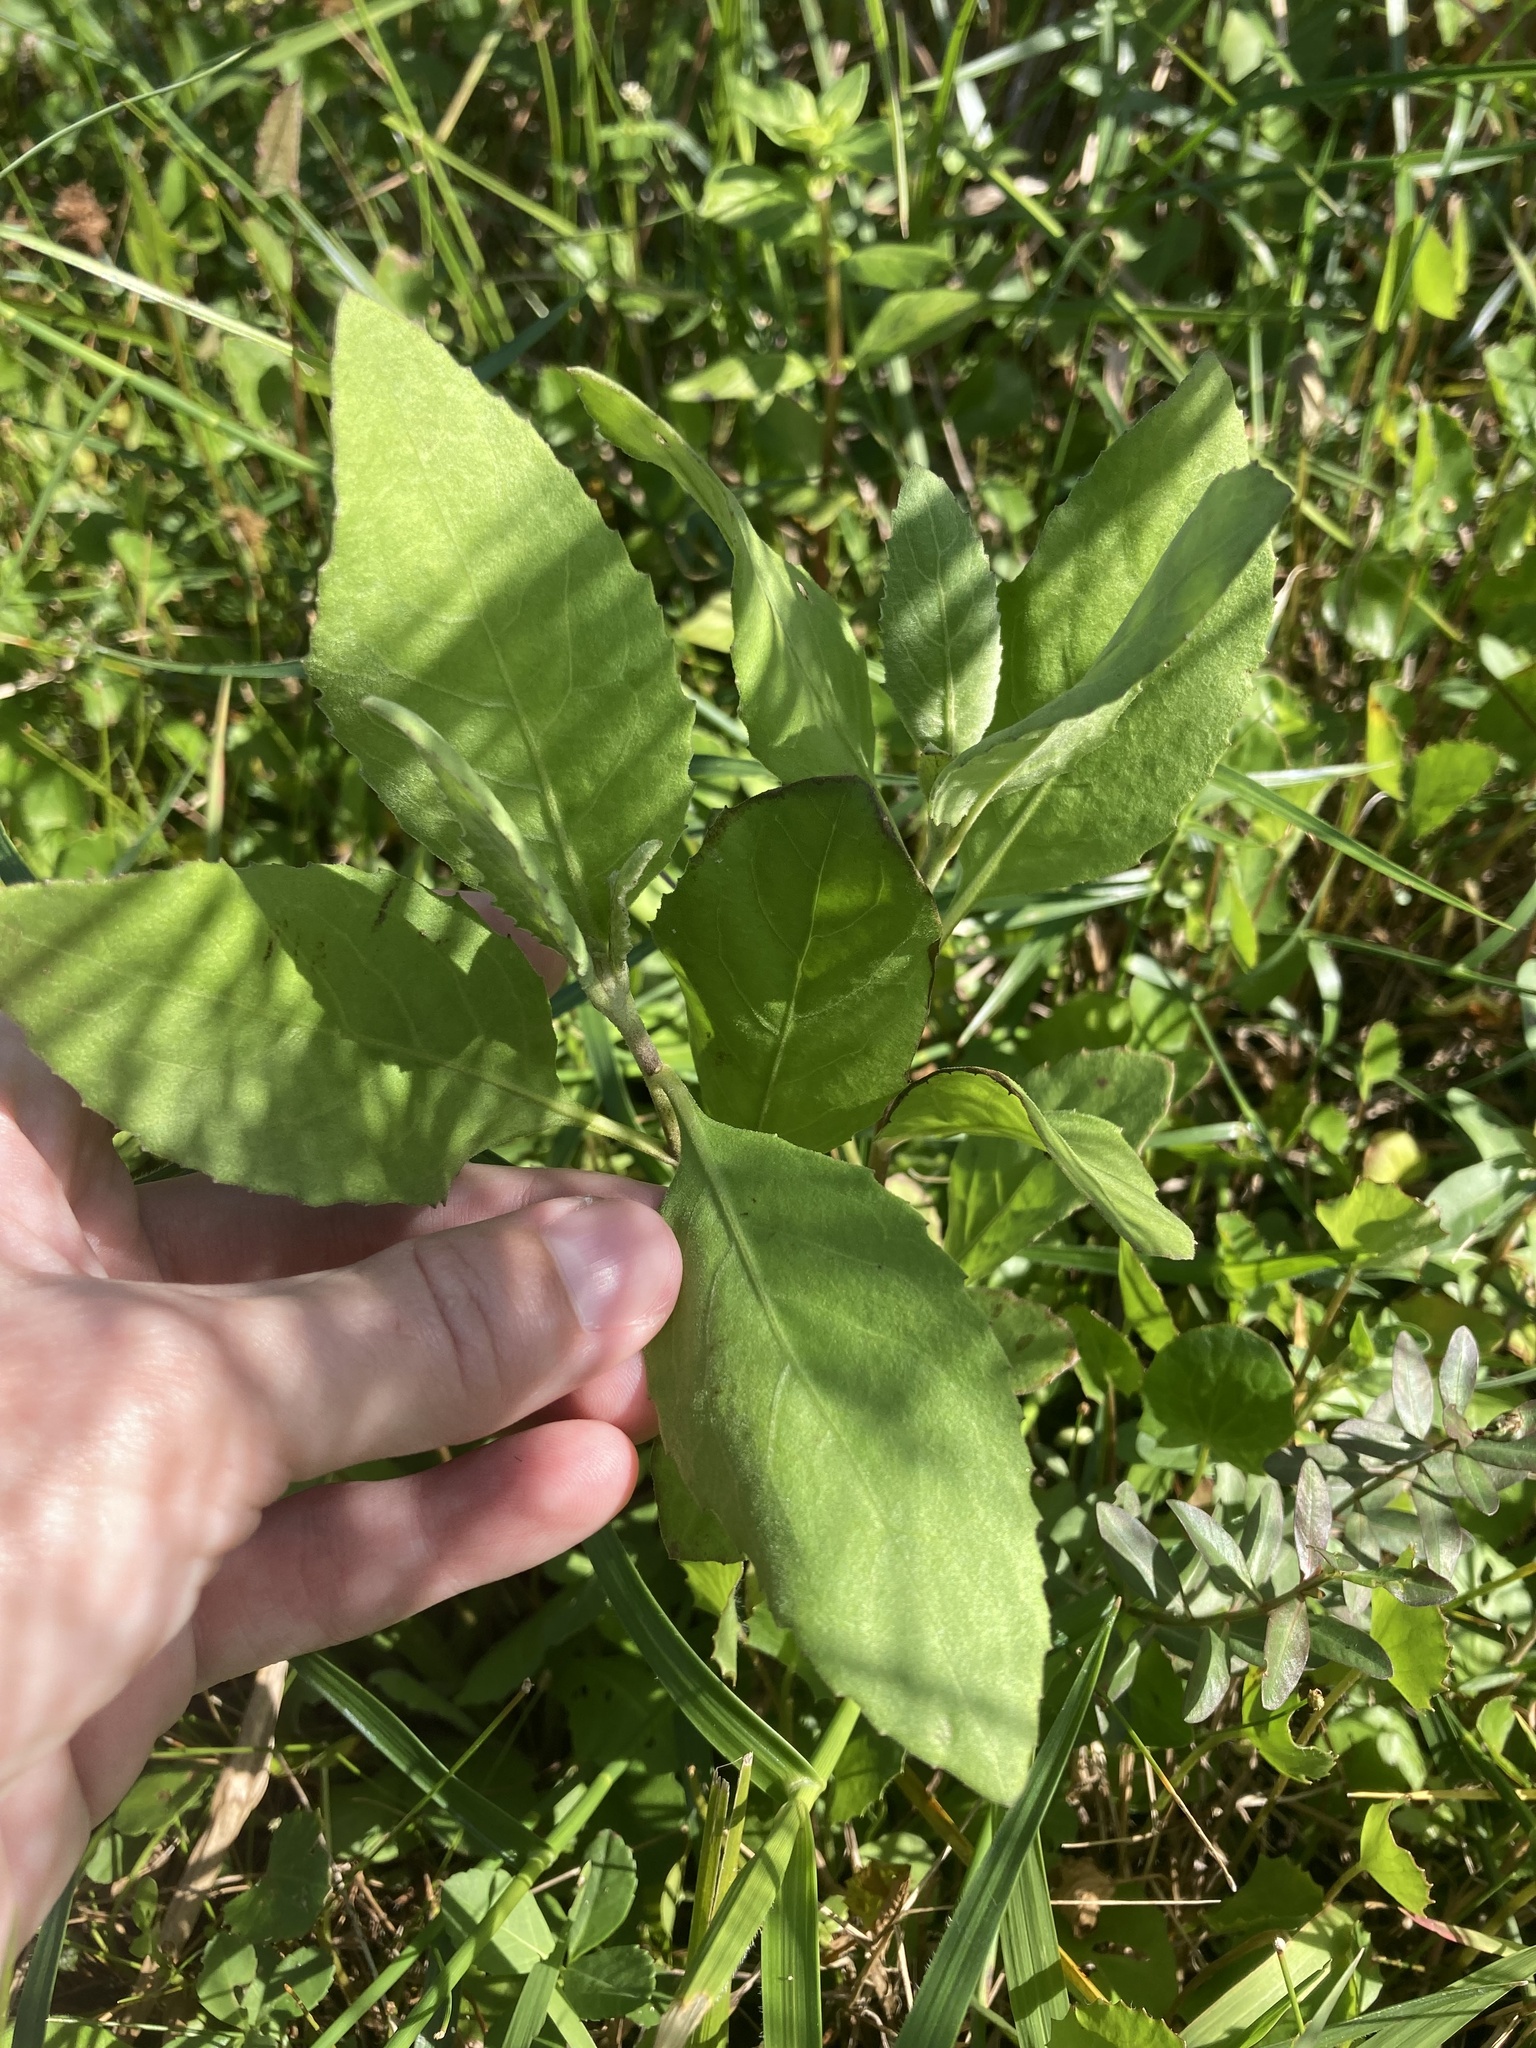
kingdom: Plantae
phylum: Tracheophyta
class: Magnoliopsida
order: Asterales
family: Asteraceae
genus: Pluchea
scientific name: Pluchea odorata
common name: Saltmarsh fleabane
